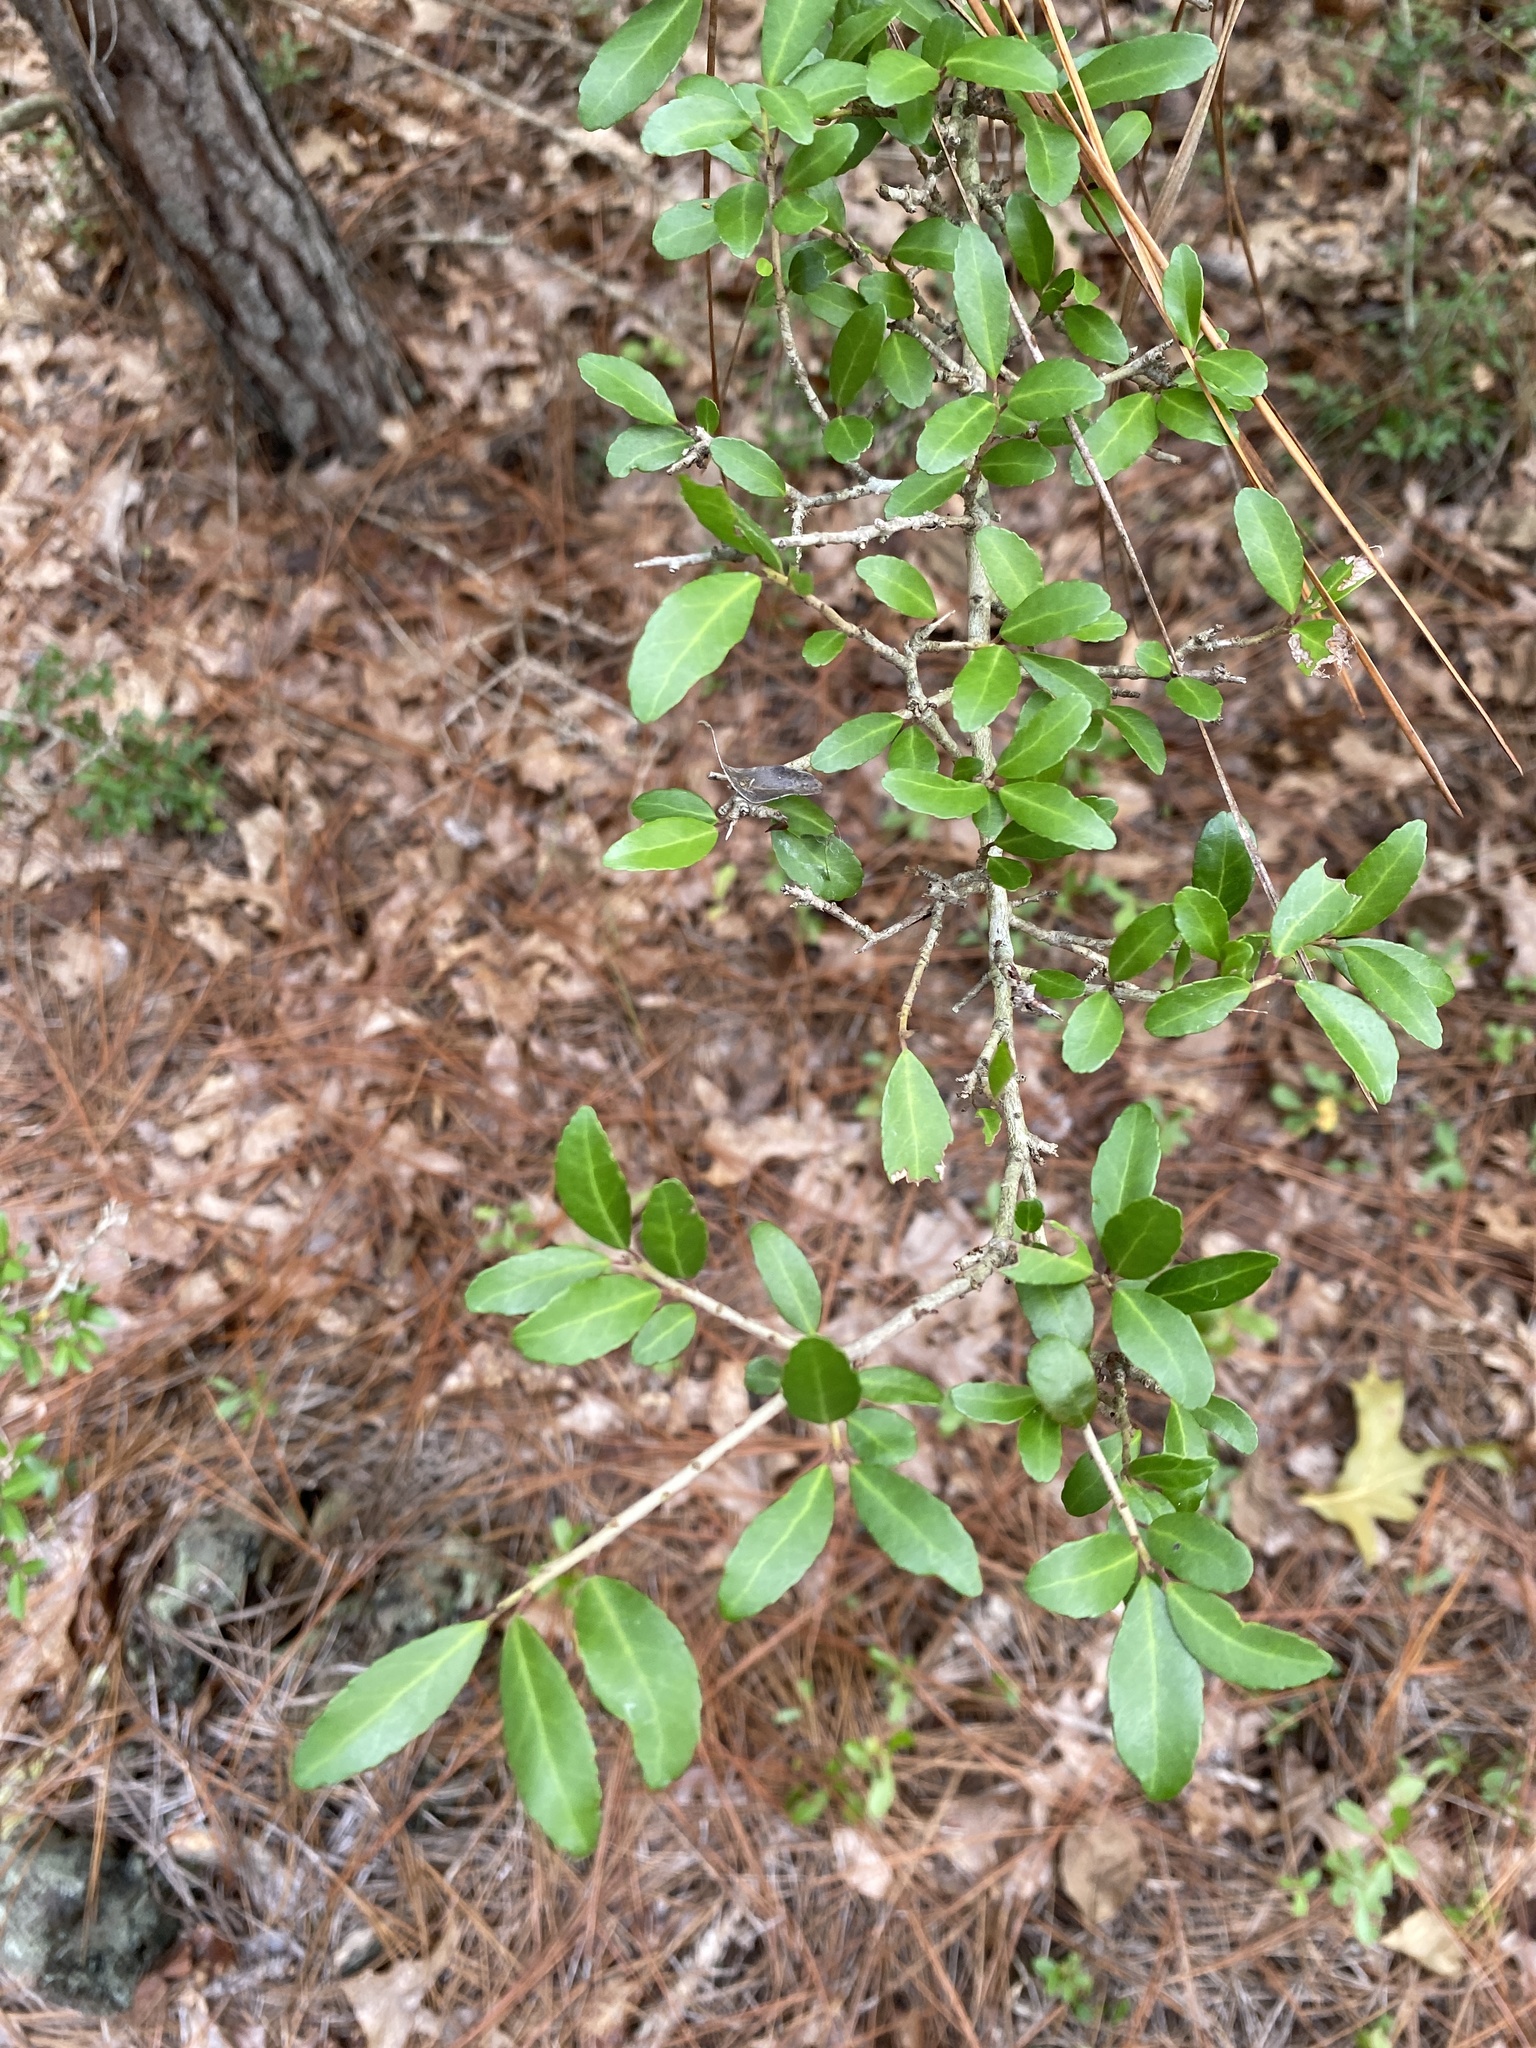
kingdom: Plantae
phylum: Tracheophyta
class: Magnoliopsida
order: Aquifoliales
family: Aquifoliaceae
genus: Ilex
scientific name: Ilex vomitoria
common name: Yaupon holly
